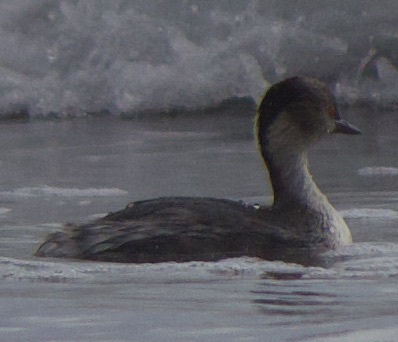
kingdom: Animalia
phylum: Chordata
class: Aves
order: Podicipediformes
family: Podicipedidae
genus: Podiceps
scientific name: Podiceps occipitalis
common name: Silvery grebe
